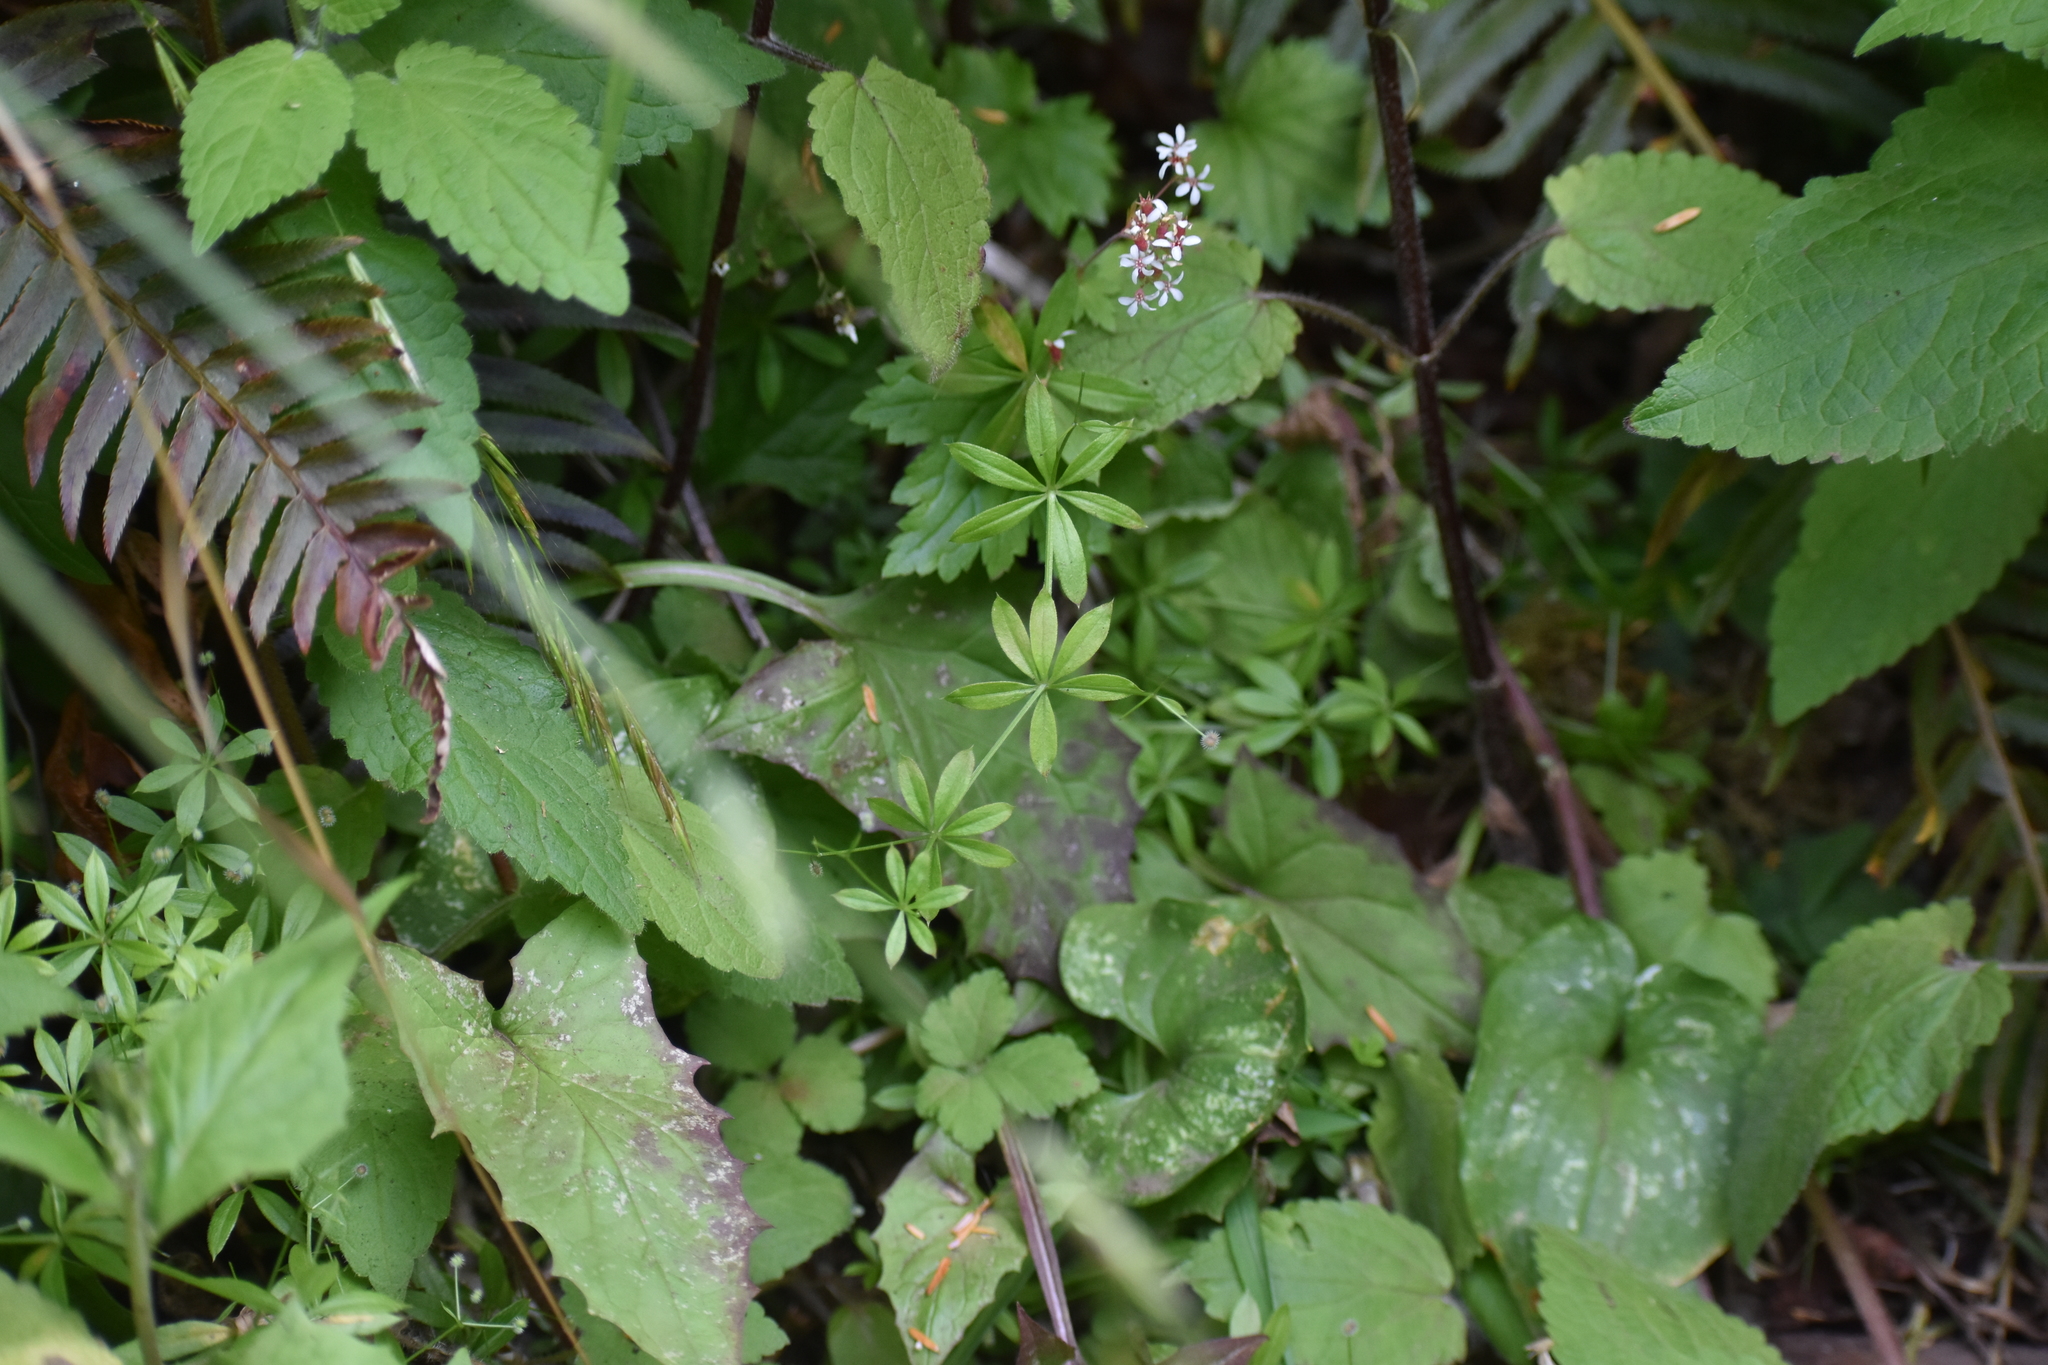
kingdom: Plantae
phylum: Tracheophyta
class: Magnoliopsida
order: Gentianales
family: Rubiaceae
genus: Galium
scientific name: Galium triflorum
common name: Fragrant bedstraw
